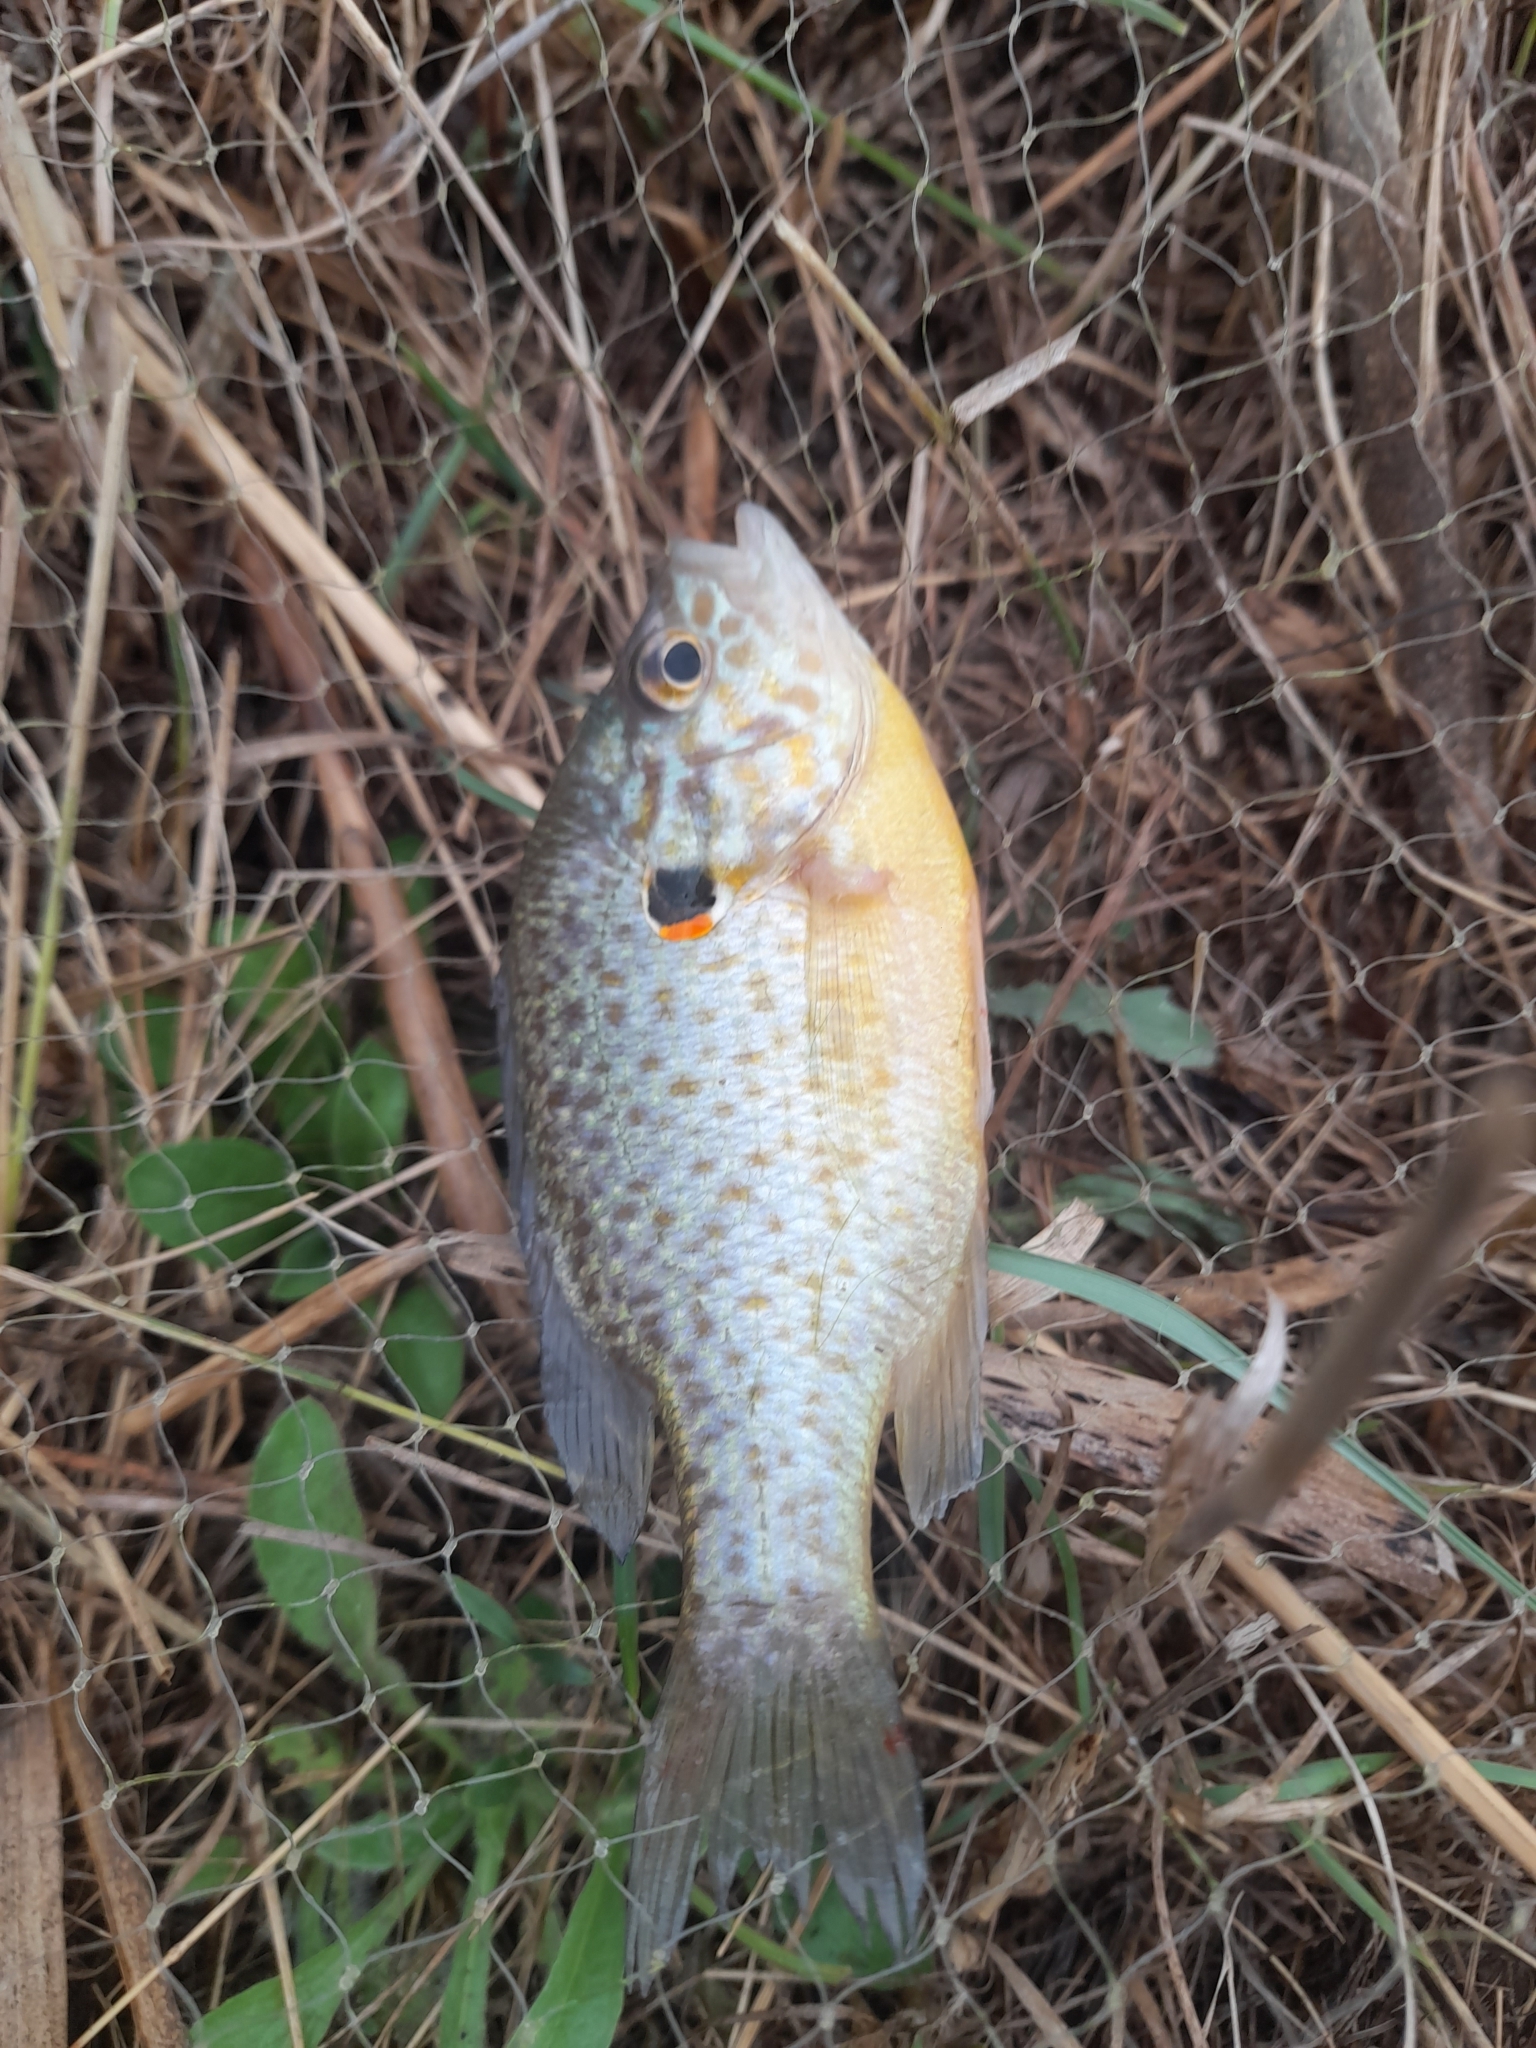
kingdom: Animalia
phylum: Chordata
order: Perciformes
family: Centrarchidae
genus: Lepomis
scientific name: Lepomis gibbosus
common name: Pumpkinseed
